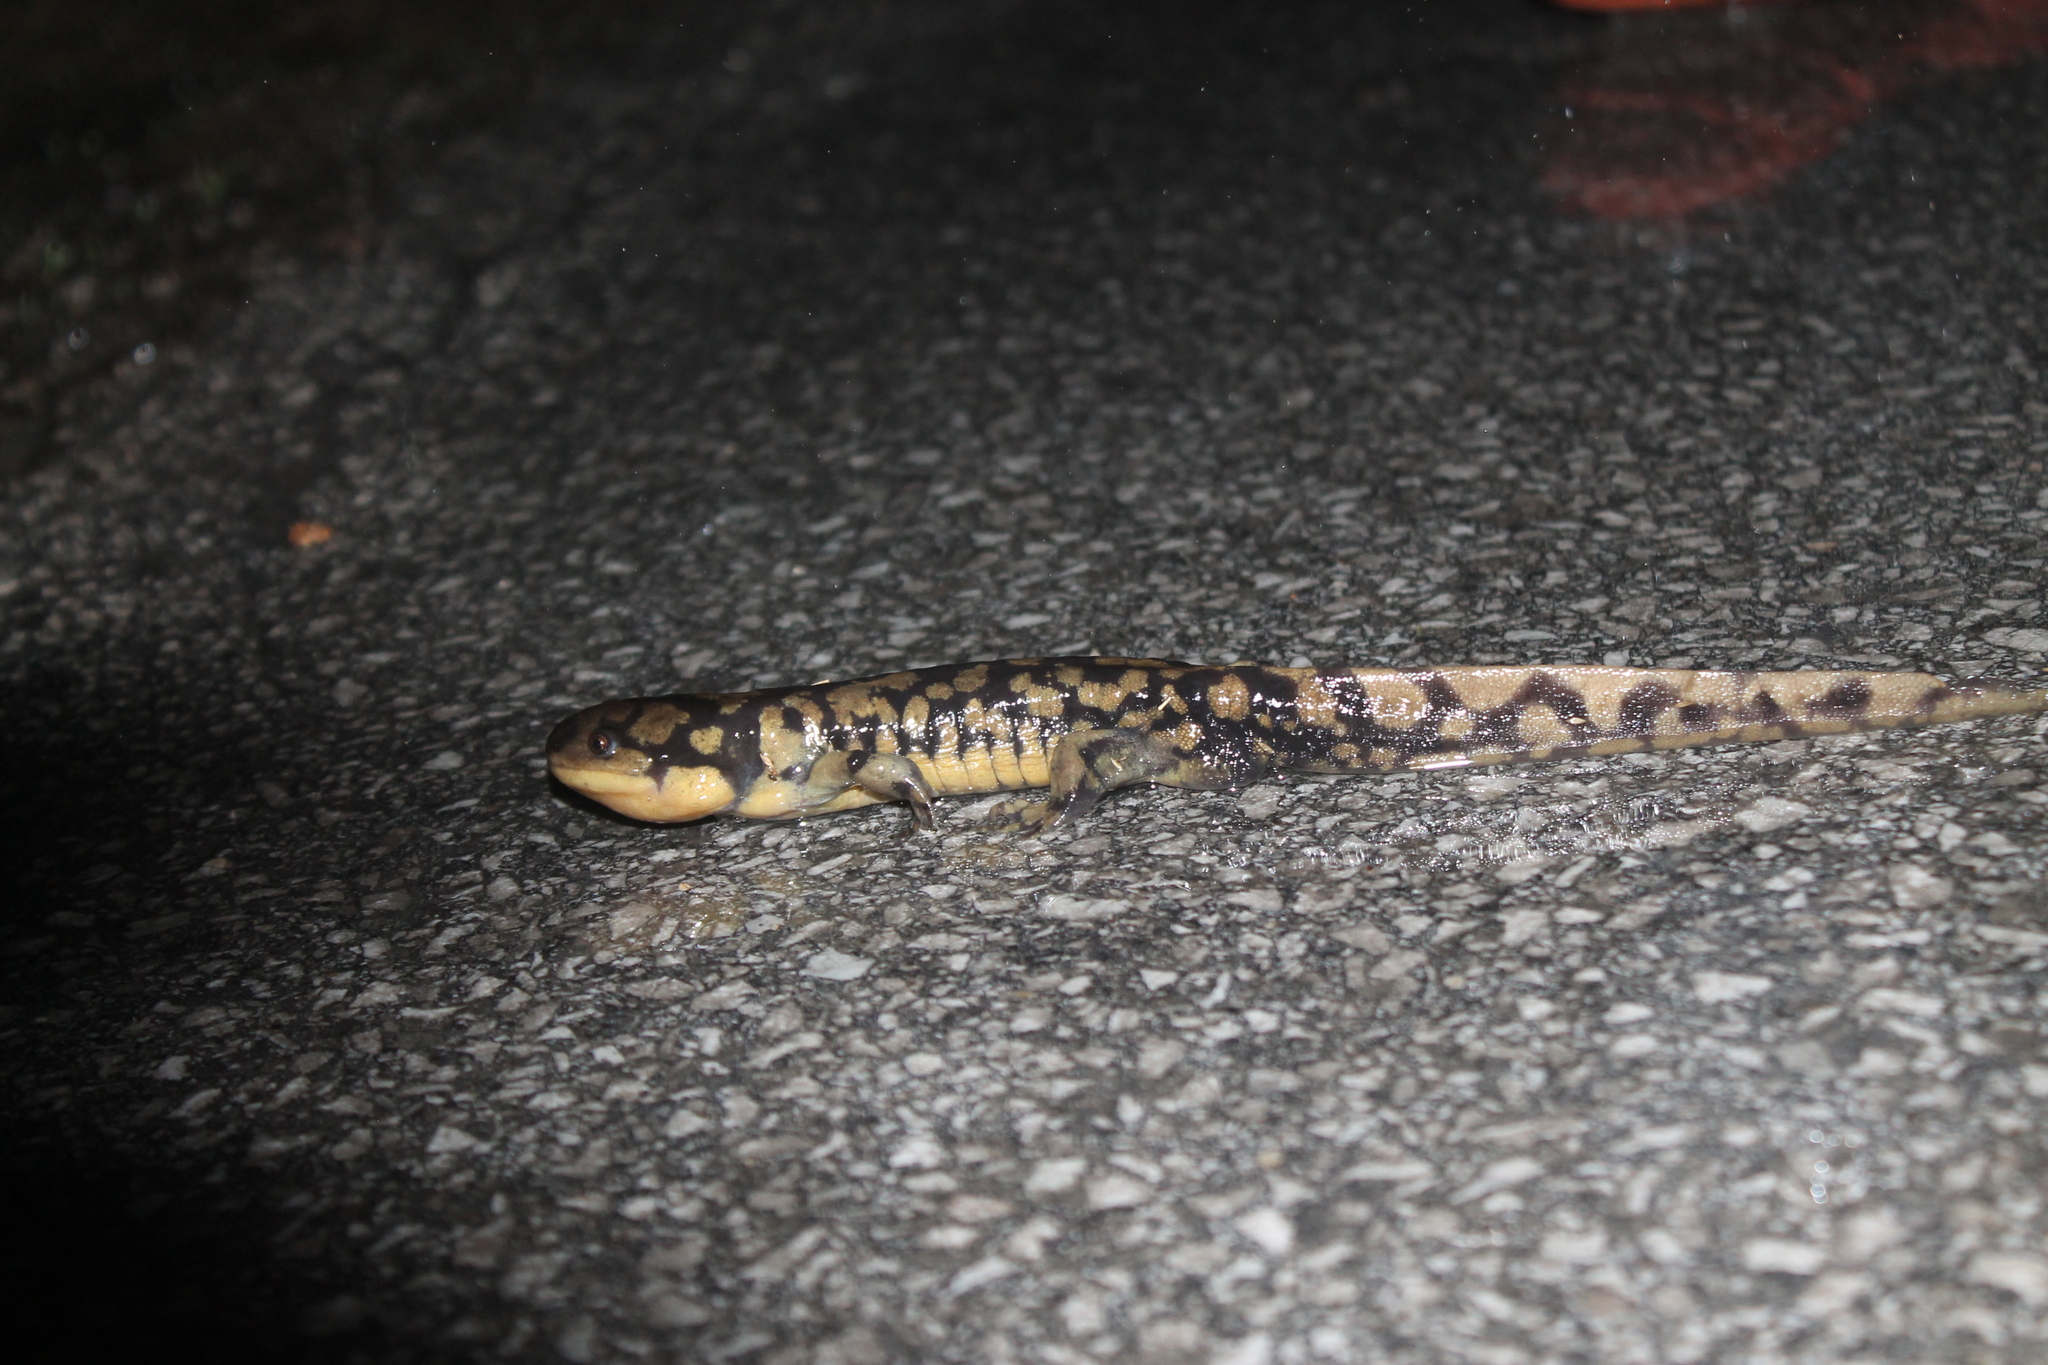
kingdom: Animalia
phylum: Chordata
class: Amphibia
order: Caudata
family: Ambystomatidae
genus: Ambystoma
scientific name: Ambystoma tigrinum
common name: Tiger salamander
